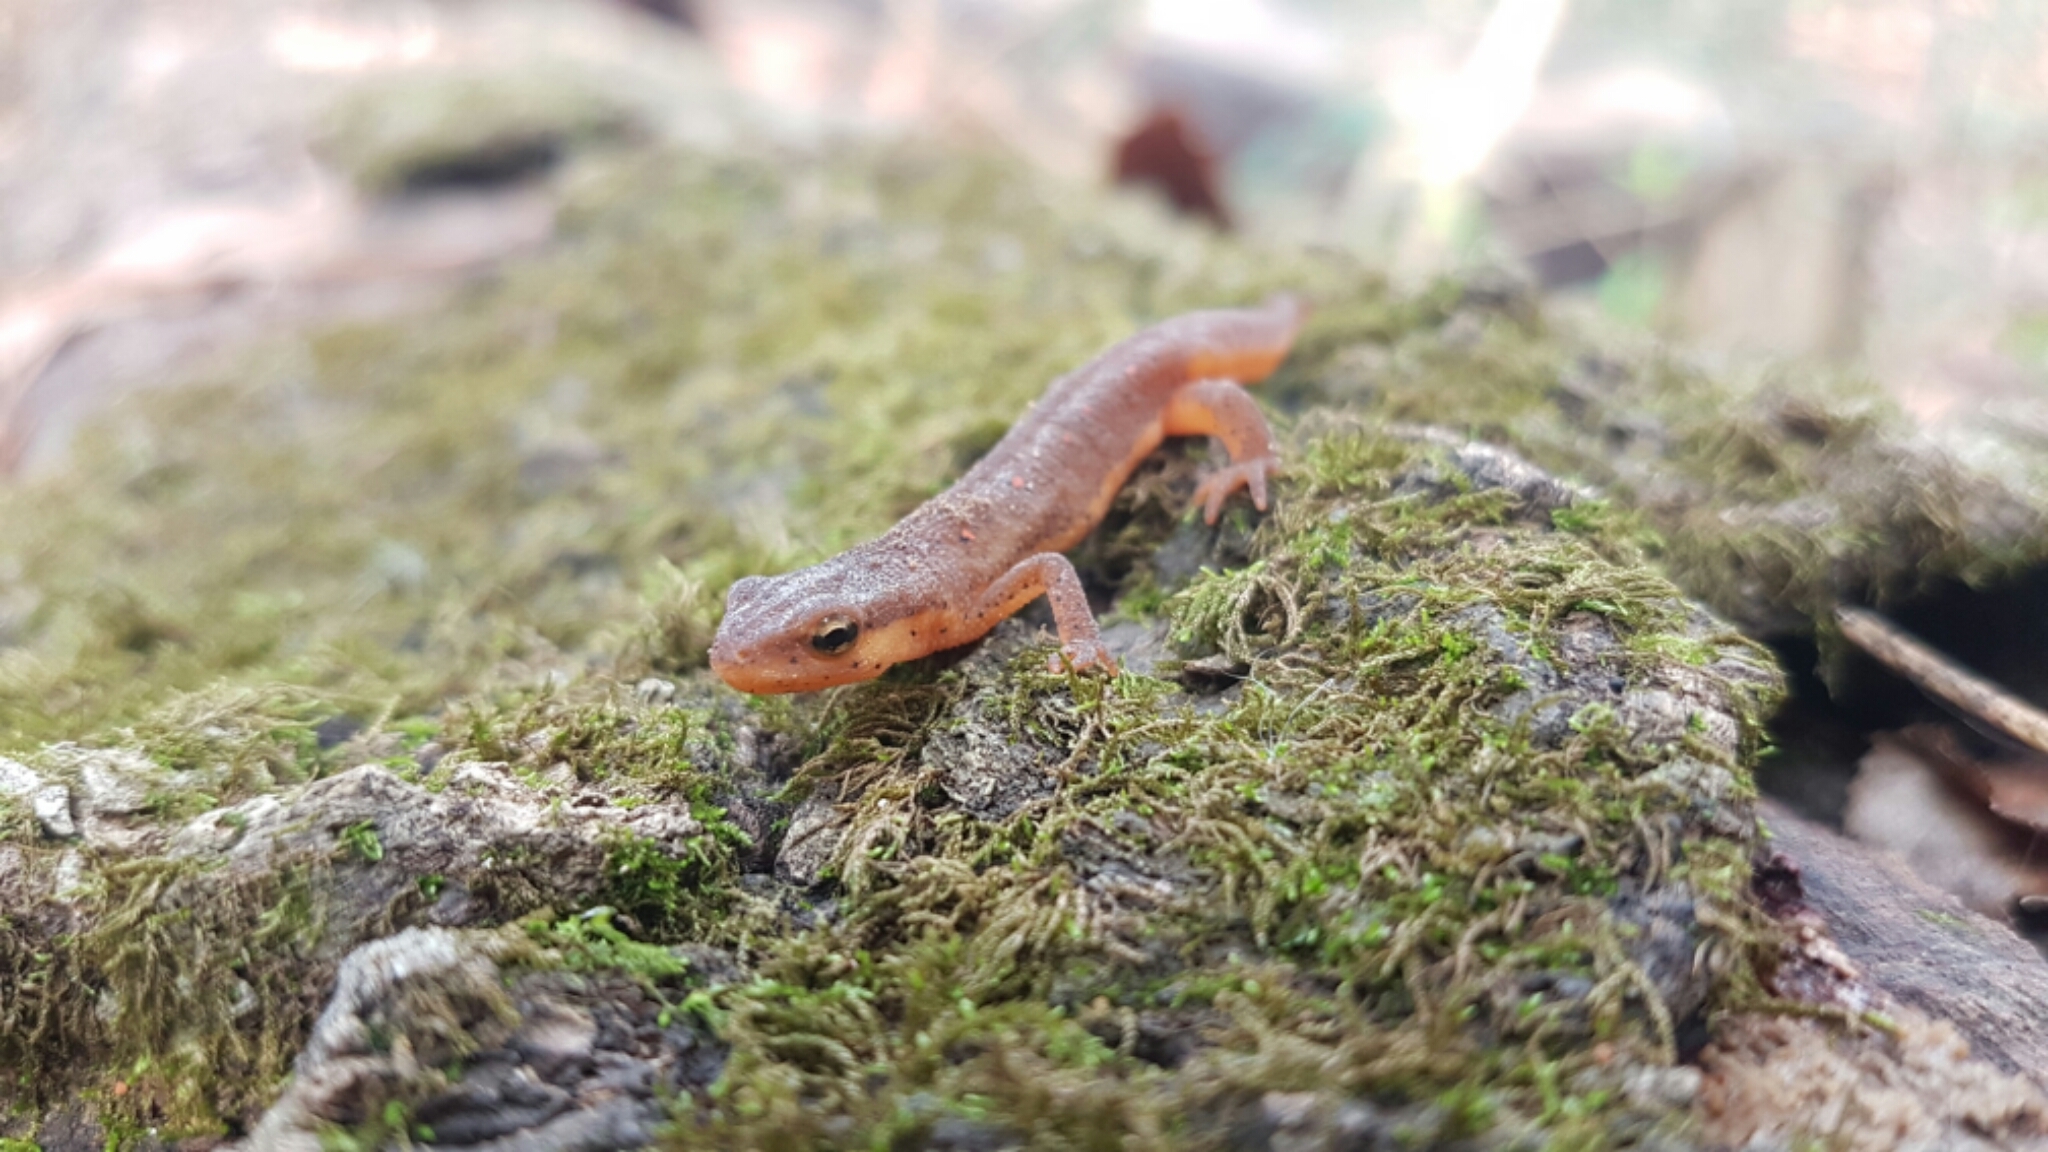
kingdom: Animalia
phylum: Chordata
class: Amphibia
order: Caudata
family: Salamandridae
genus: Notophthalmus
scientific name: Notophthalmus viridescens
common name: Eastern newt
